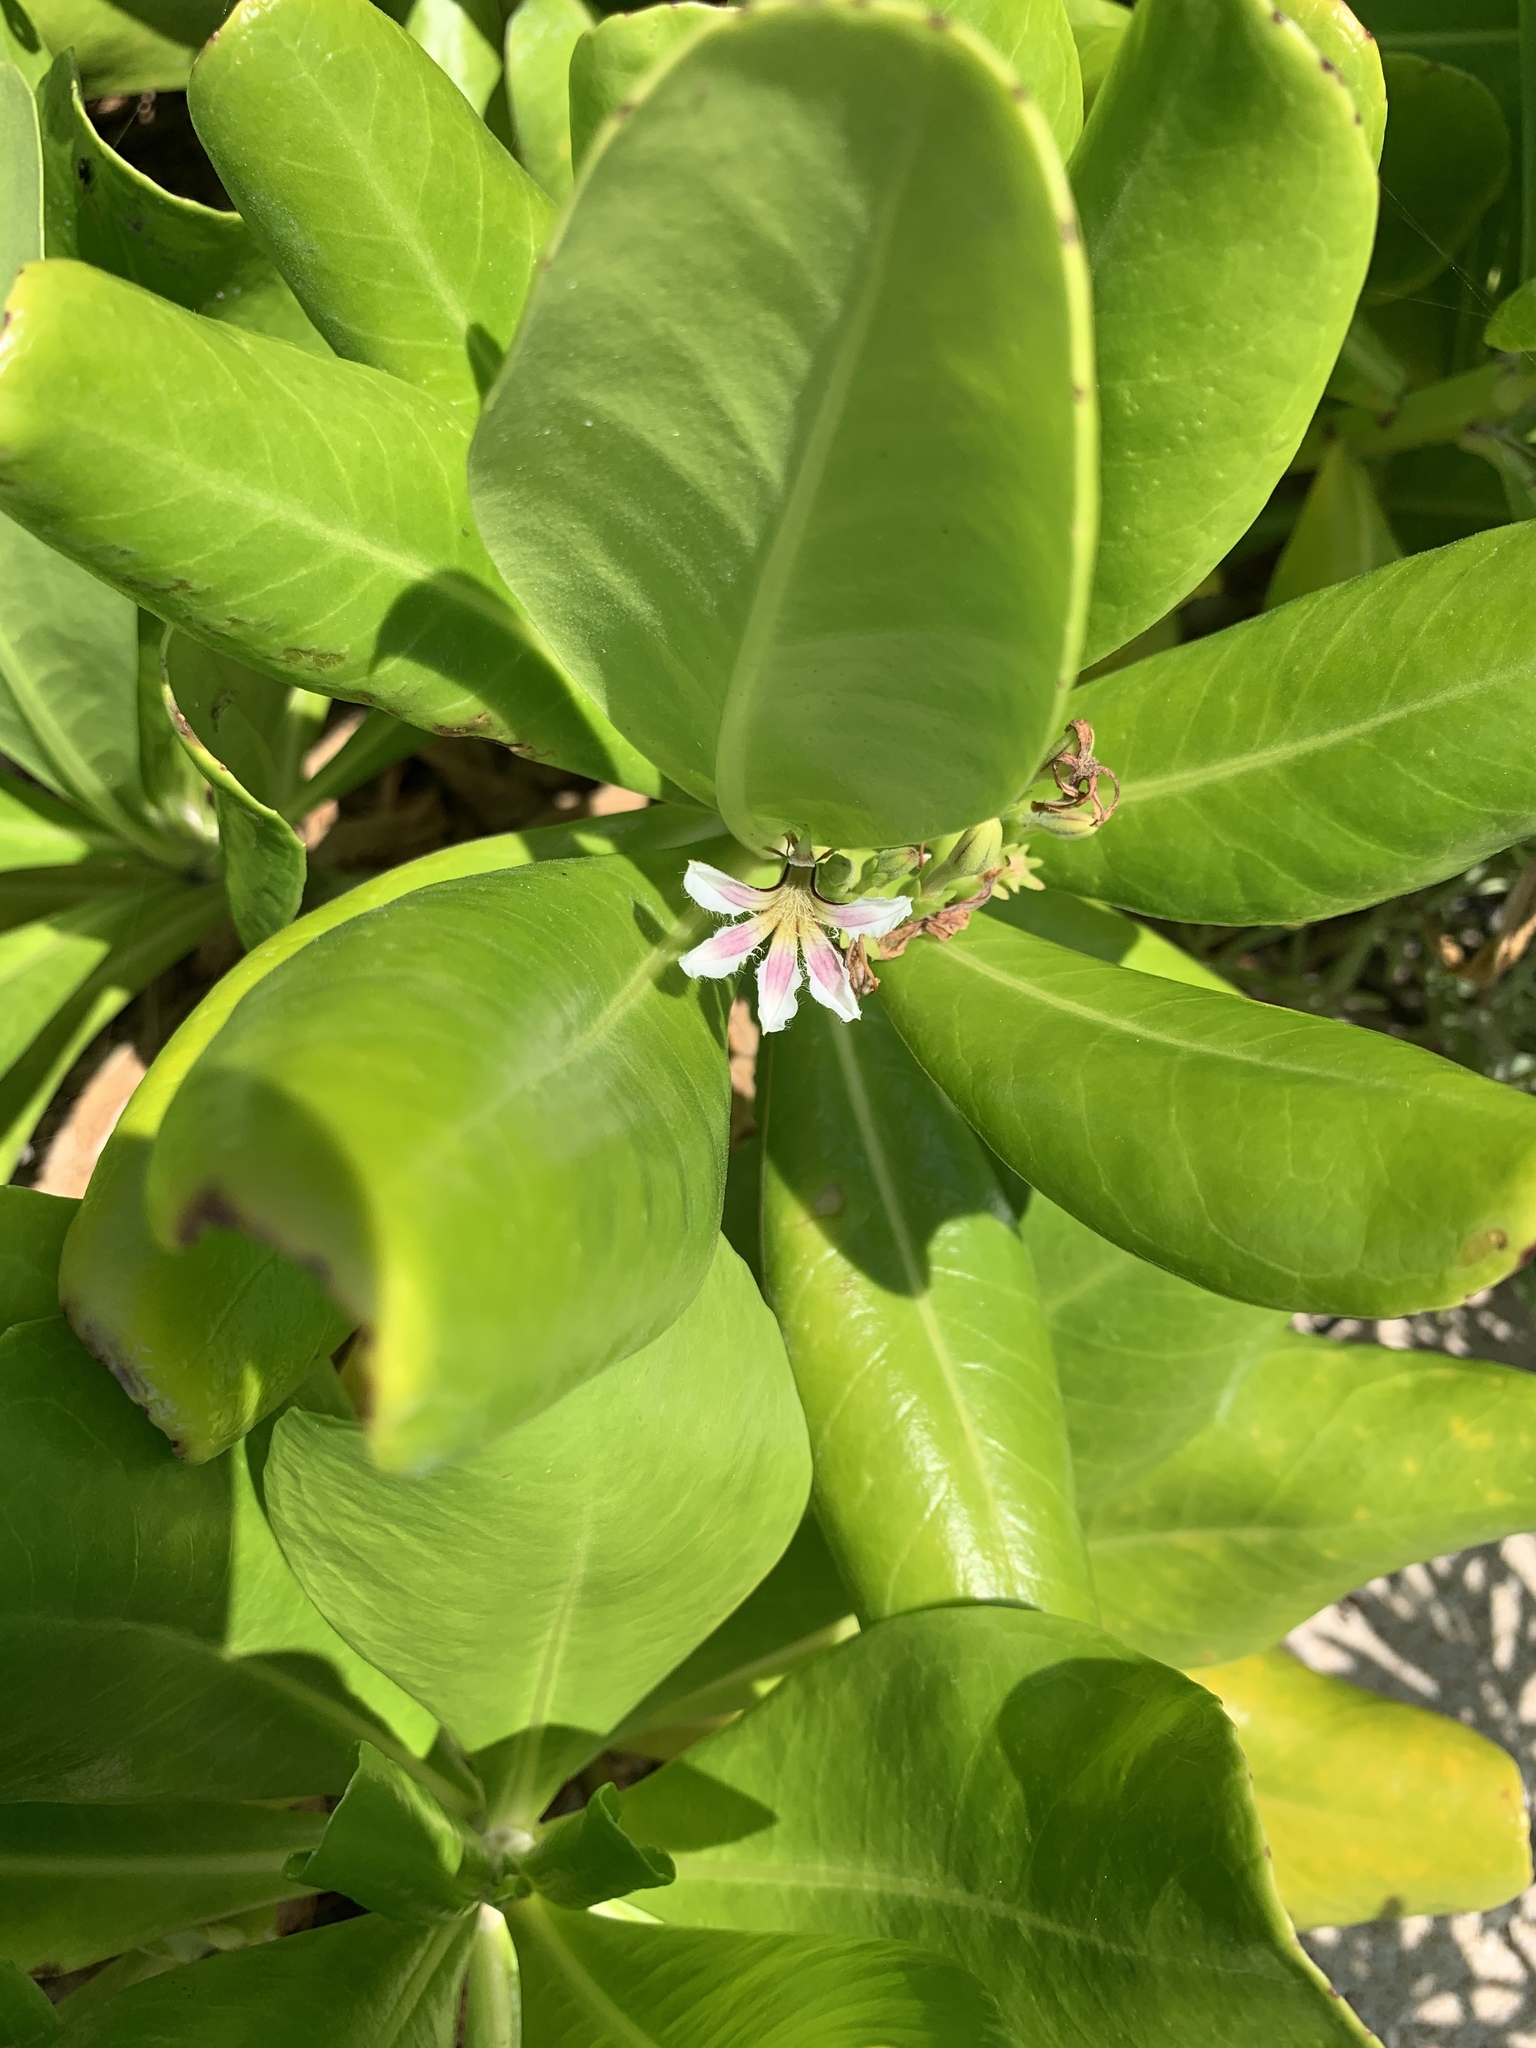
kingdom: Plantae
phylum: Tracheophyta
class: Magnoliopsida
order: Asterales
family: Goodeniaceae
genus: Scaevola
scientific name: Scaevola taccada
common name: Sea lettucetree
